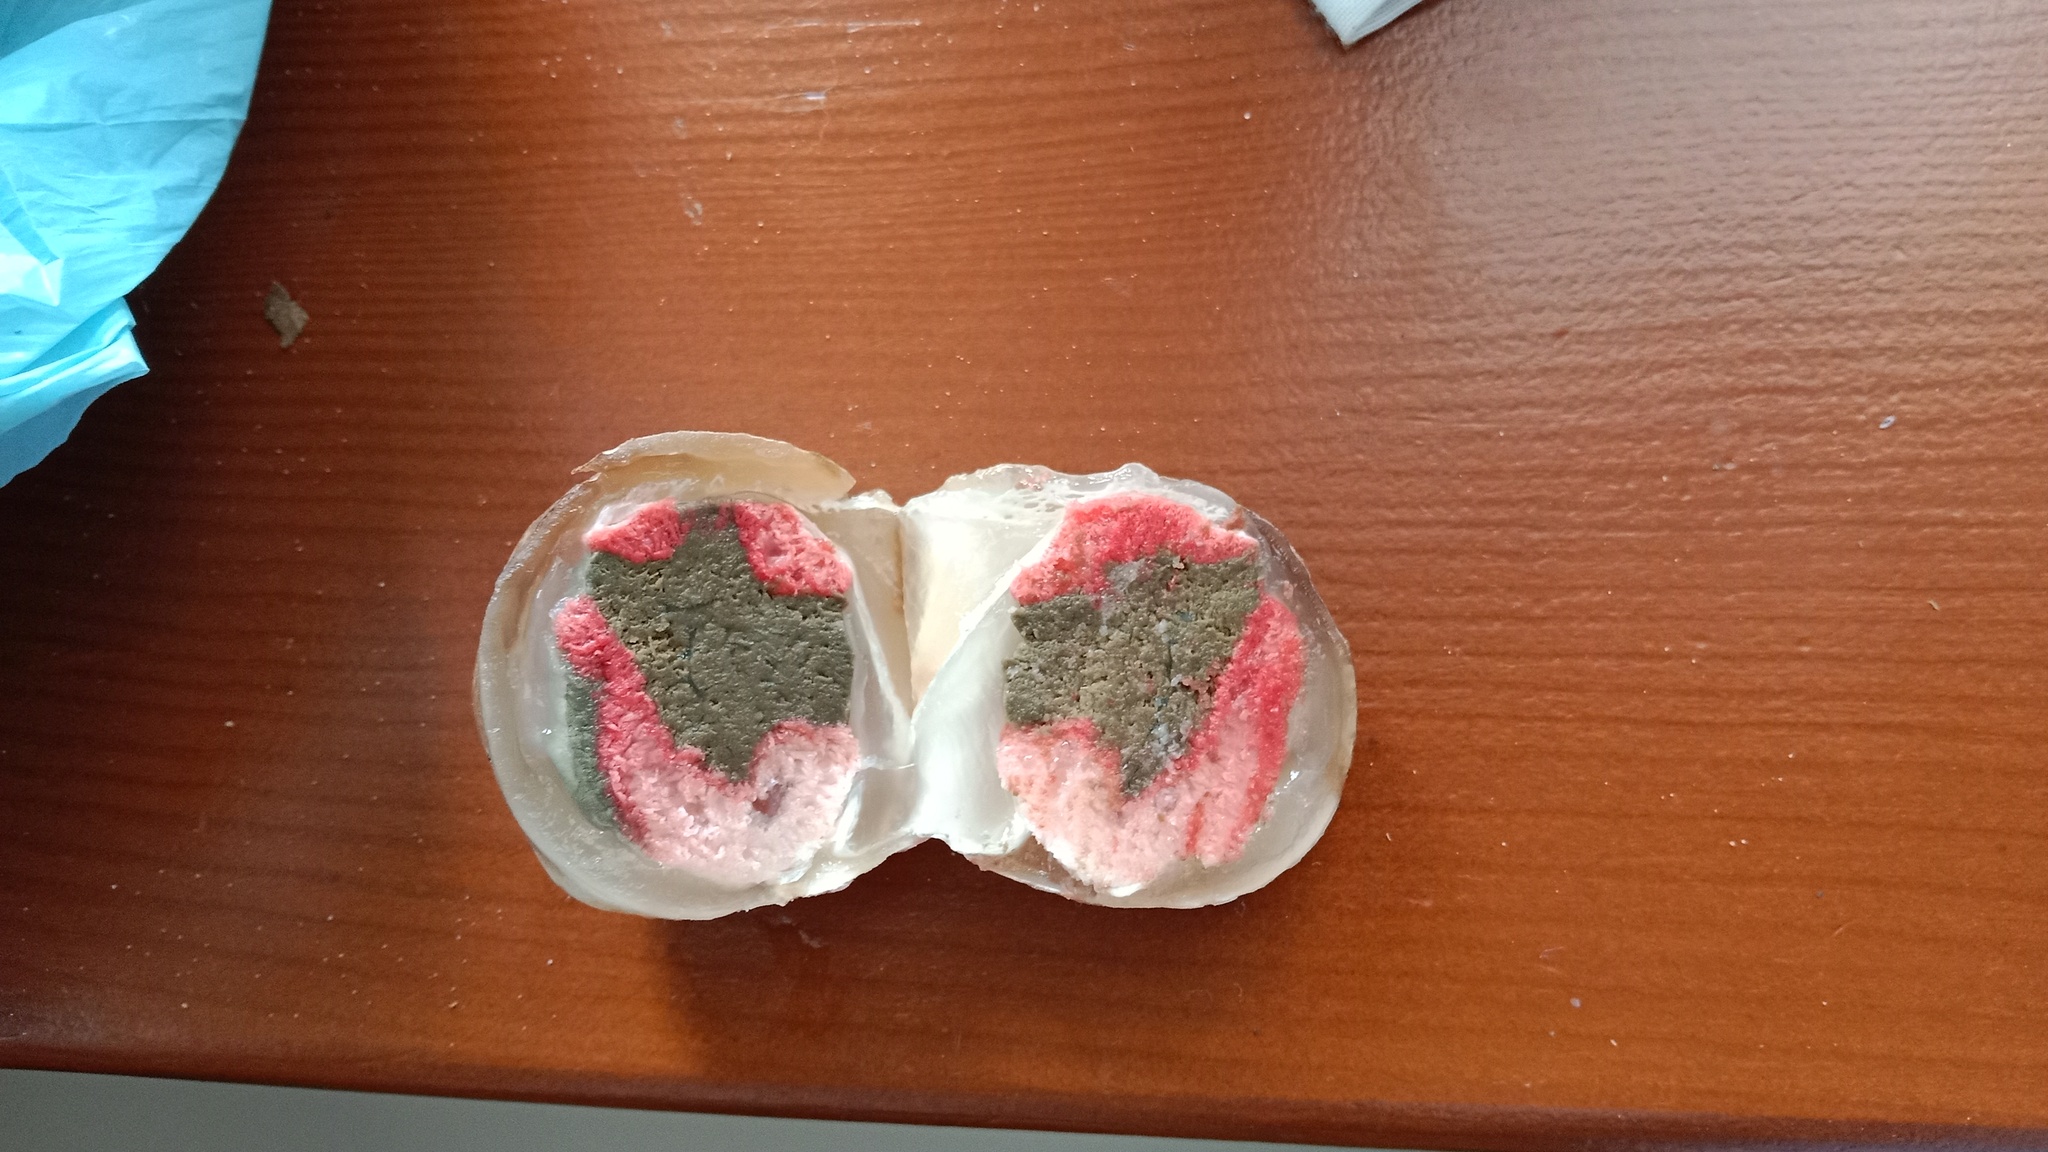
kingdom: Fungi
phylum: Basidiomycota
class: Agaricomycetes
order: Phallales
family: Phallaceae
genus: Clathrus
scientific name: Clathrus archeri
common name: Devil's fingers
